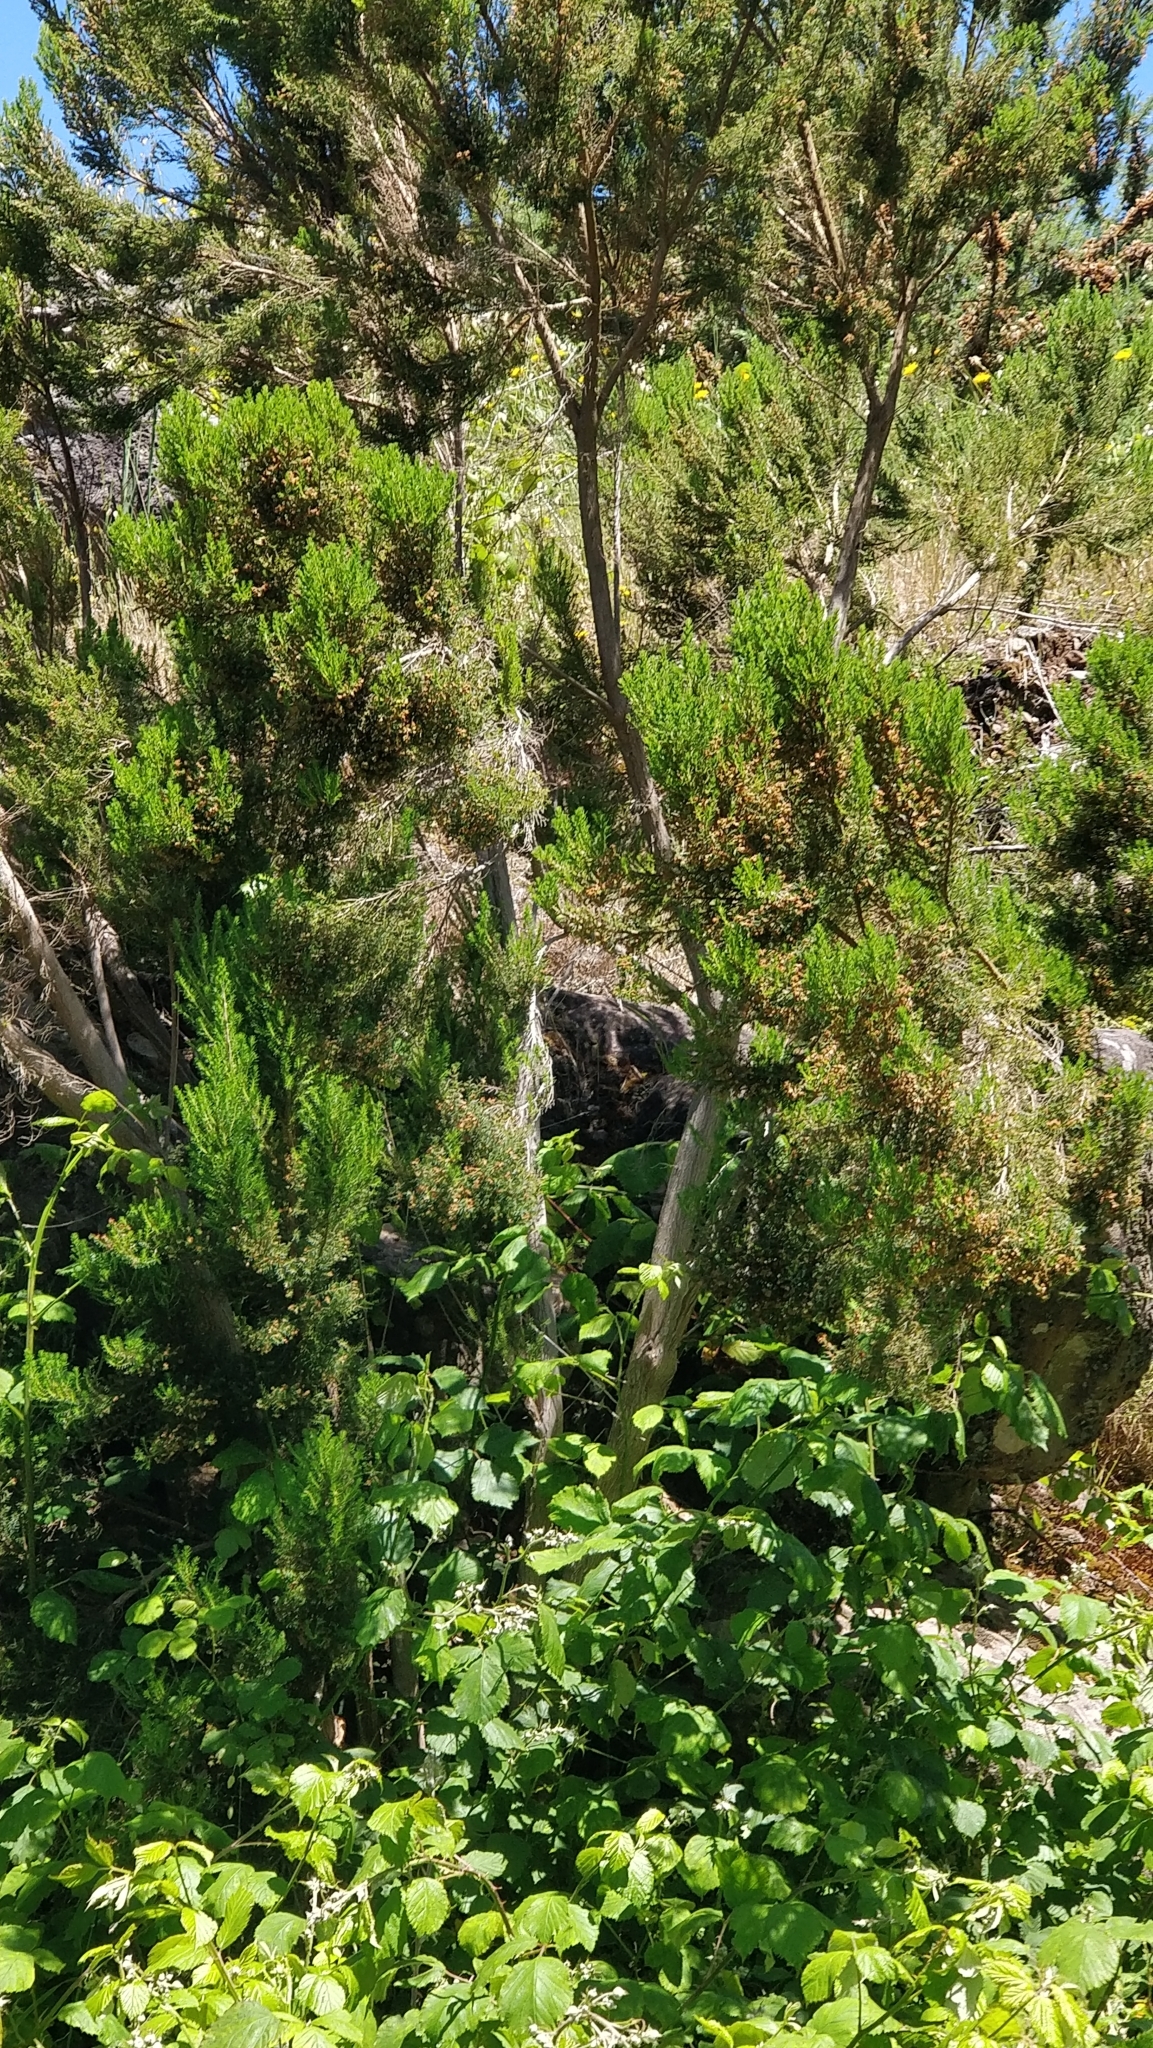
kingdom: Plantae
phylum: Tracheophyta
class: Magnoliopsida
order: Ericales
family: Ericaceae
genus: Erica
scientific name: Erica canariensis
